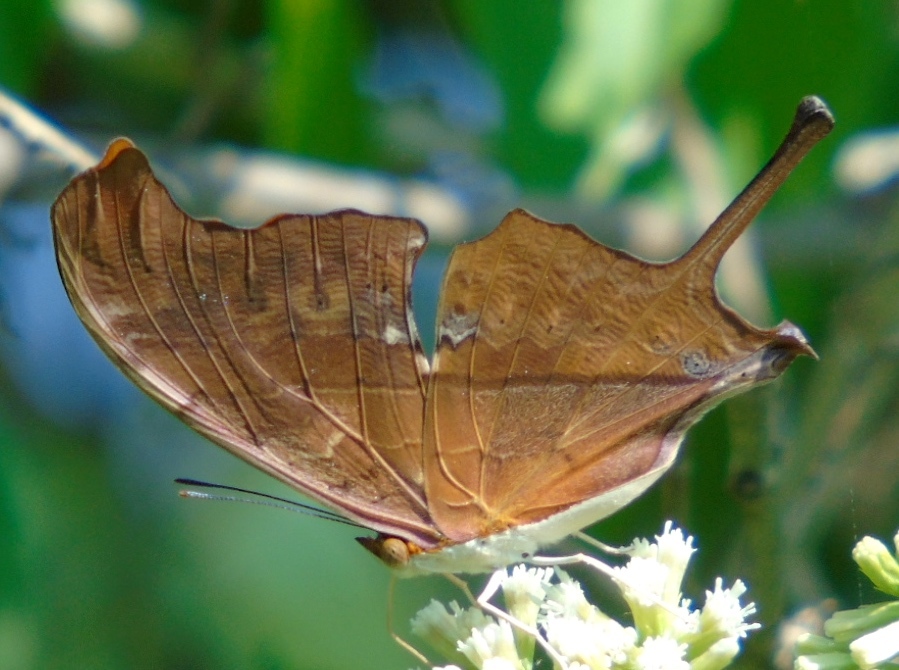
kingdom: Animalia
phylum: Arthropoda
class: Insecta
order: Lepidoptera
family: Nymphalidae
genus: Marpesia
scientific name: Marpesia petreus
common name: Red dagger wing
